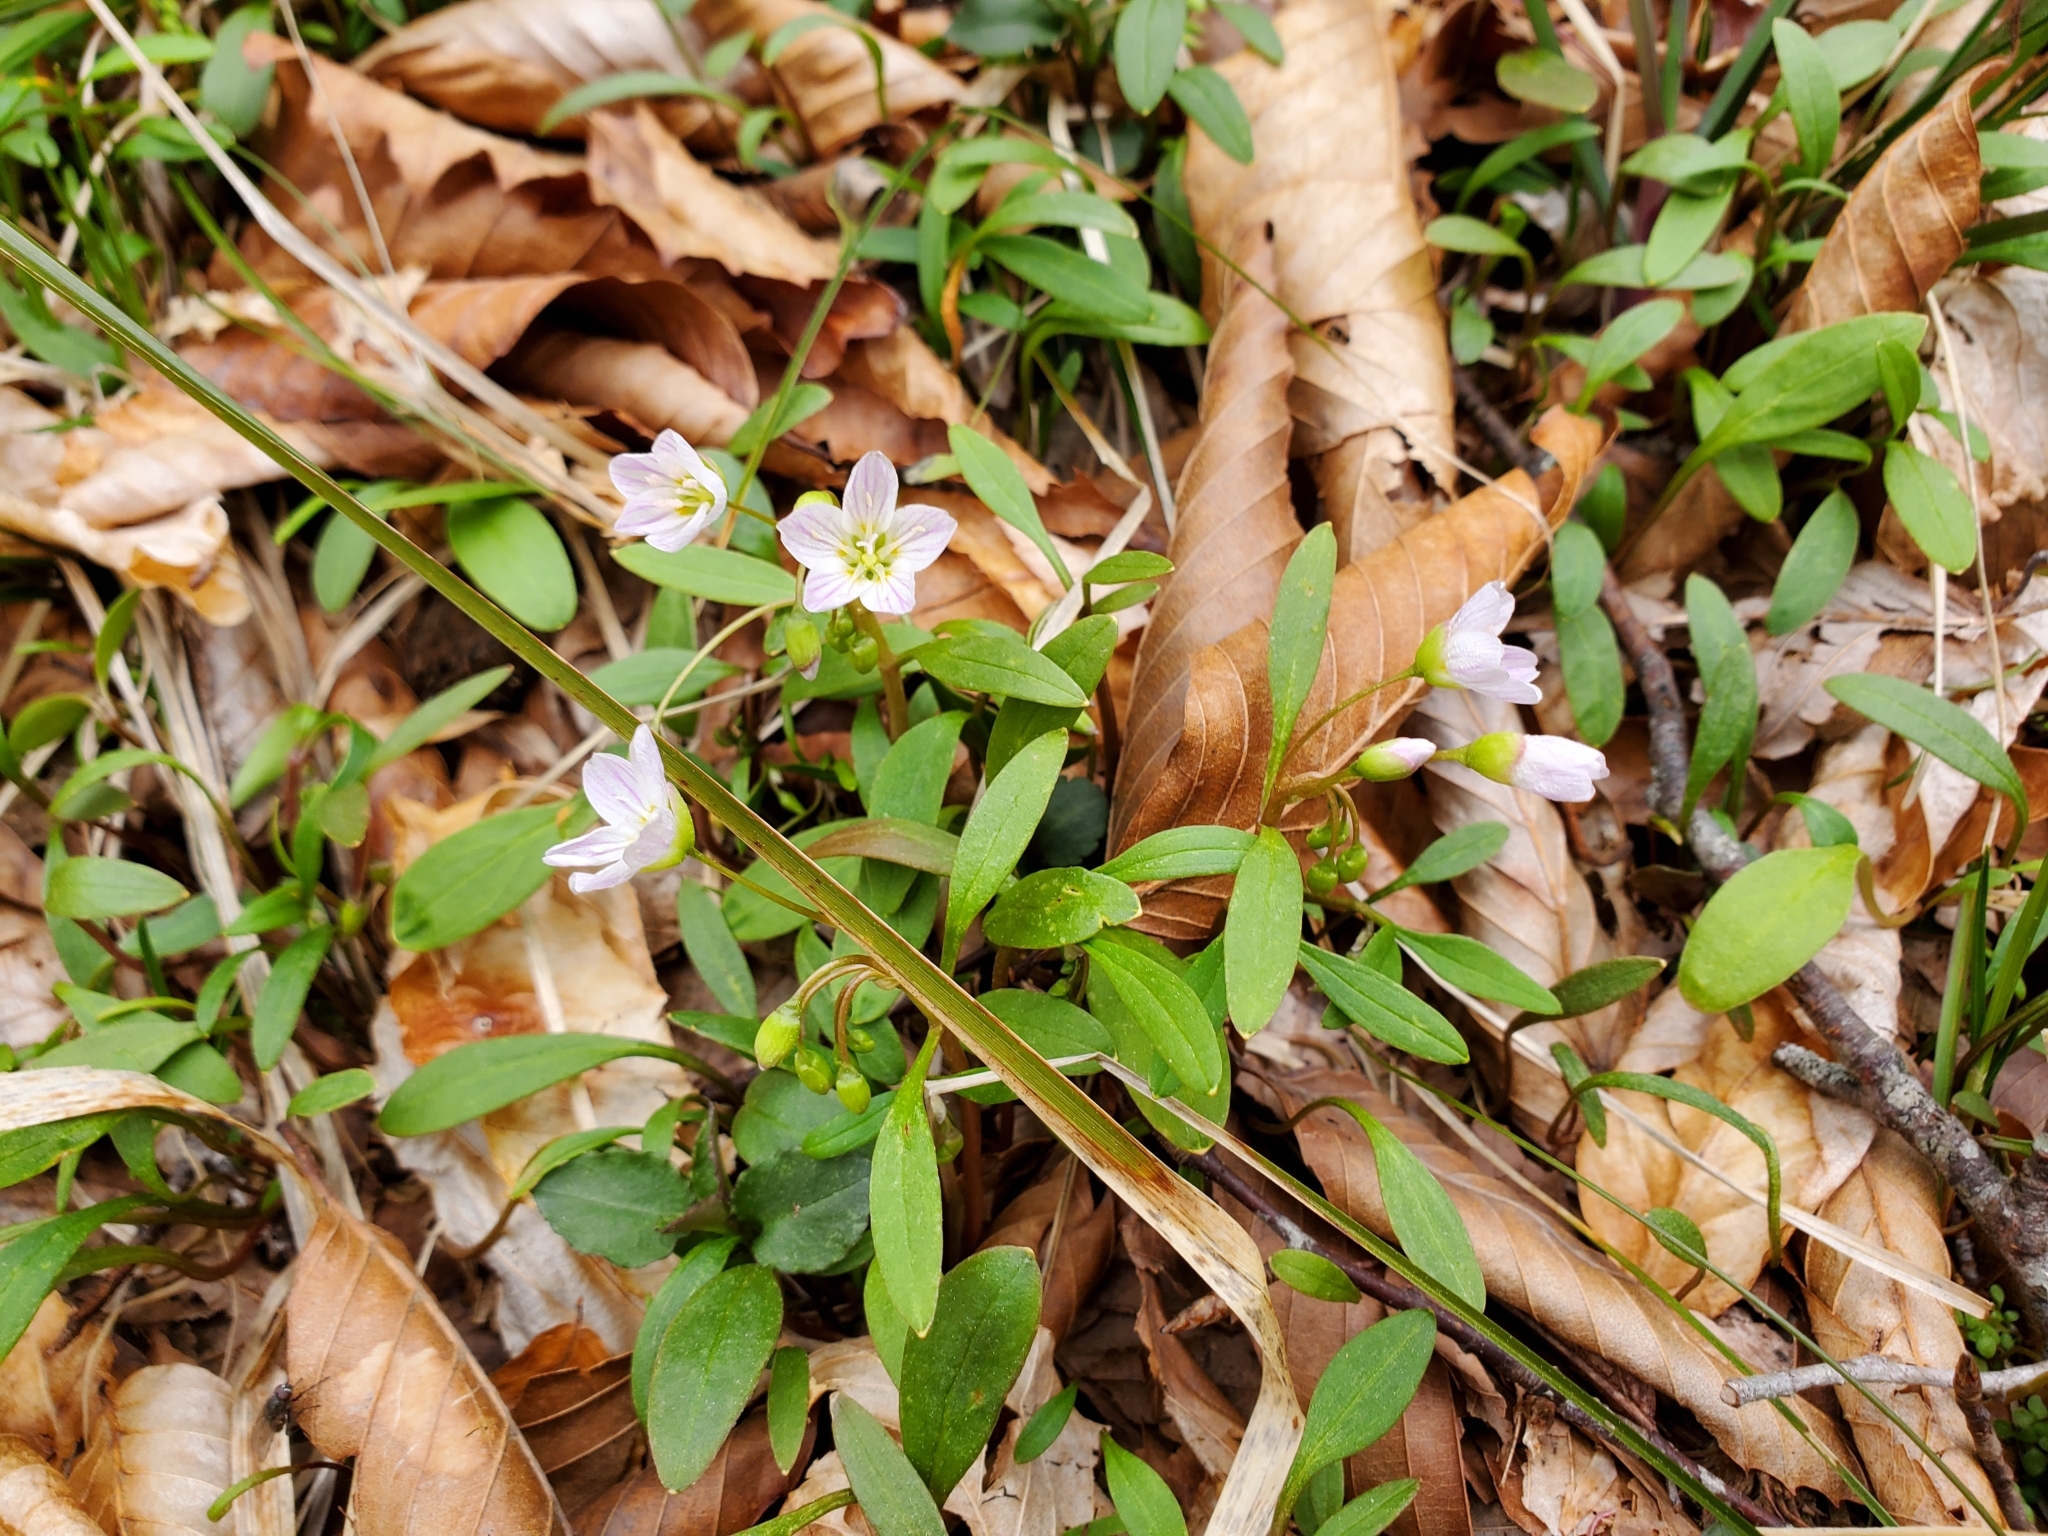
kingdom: Plantae
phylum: Tracheophyta
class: Magnoliopsida
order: Caryophyllales
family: Montiaceae
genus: Claytonia
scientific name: Claytonia caroliniana
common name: Carolina spring beauty
